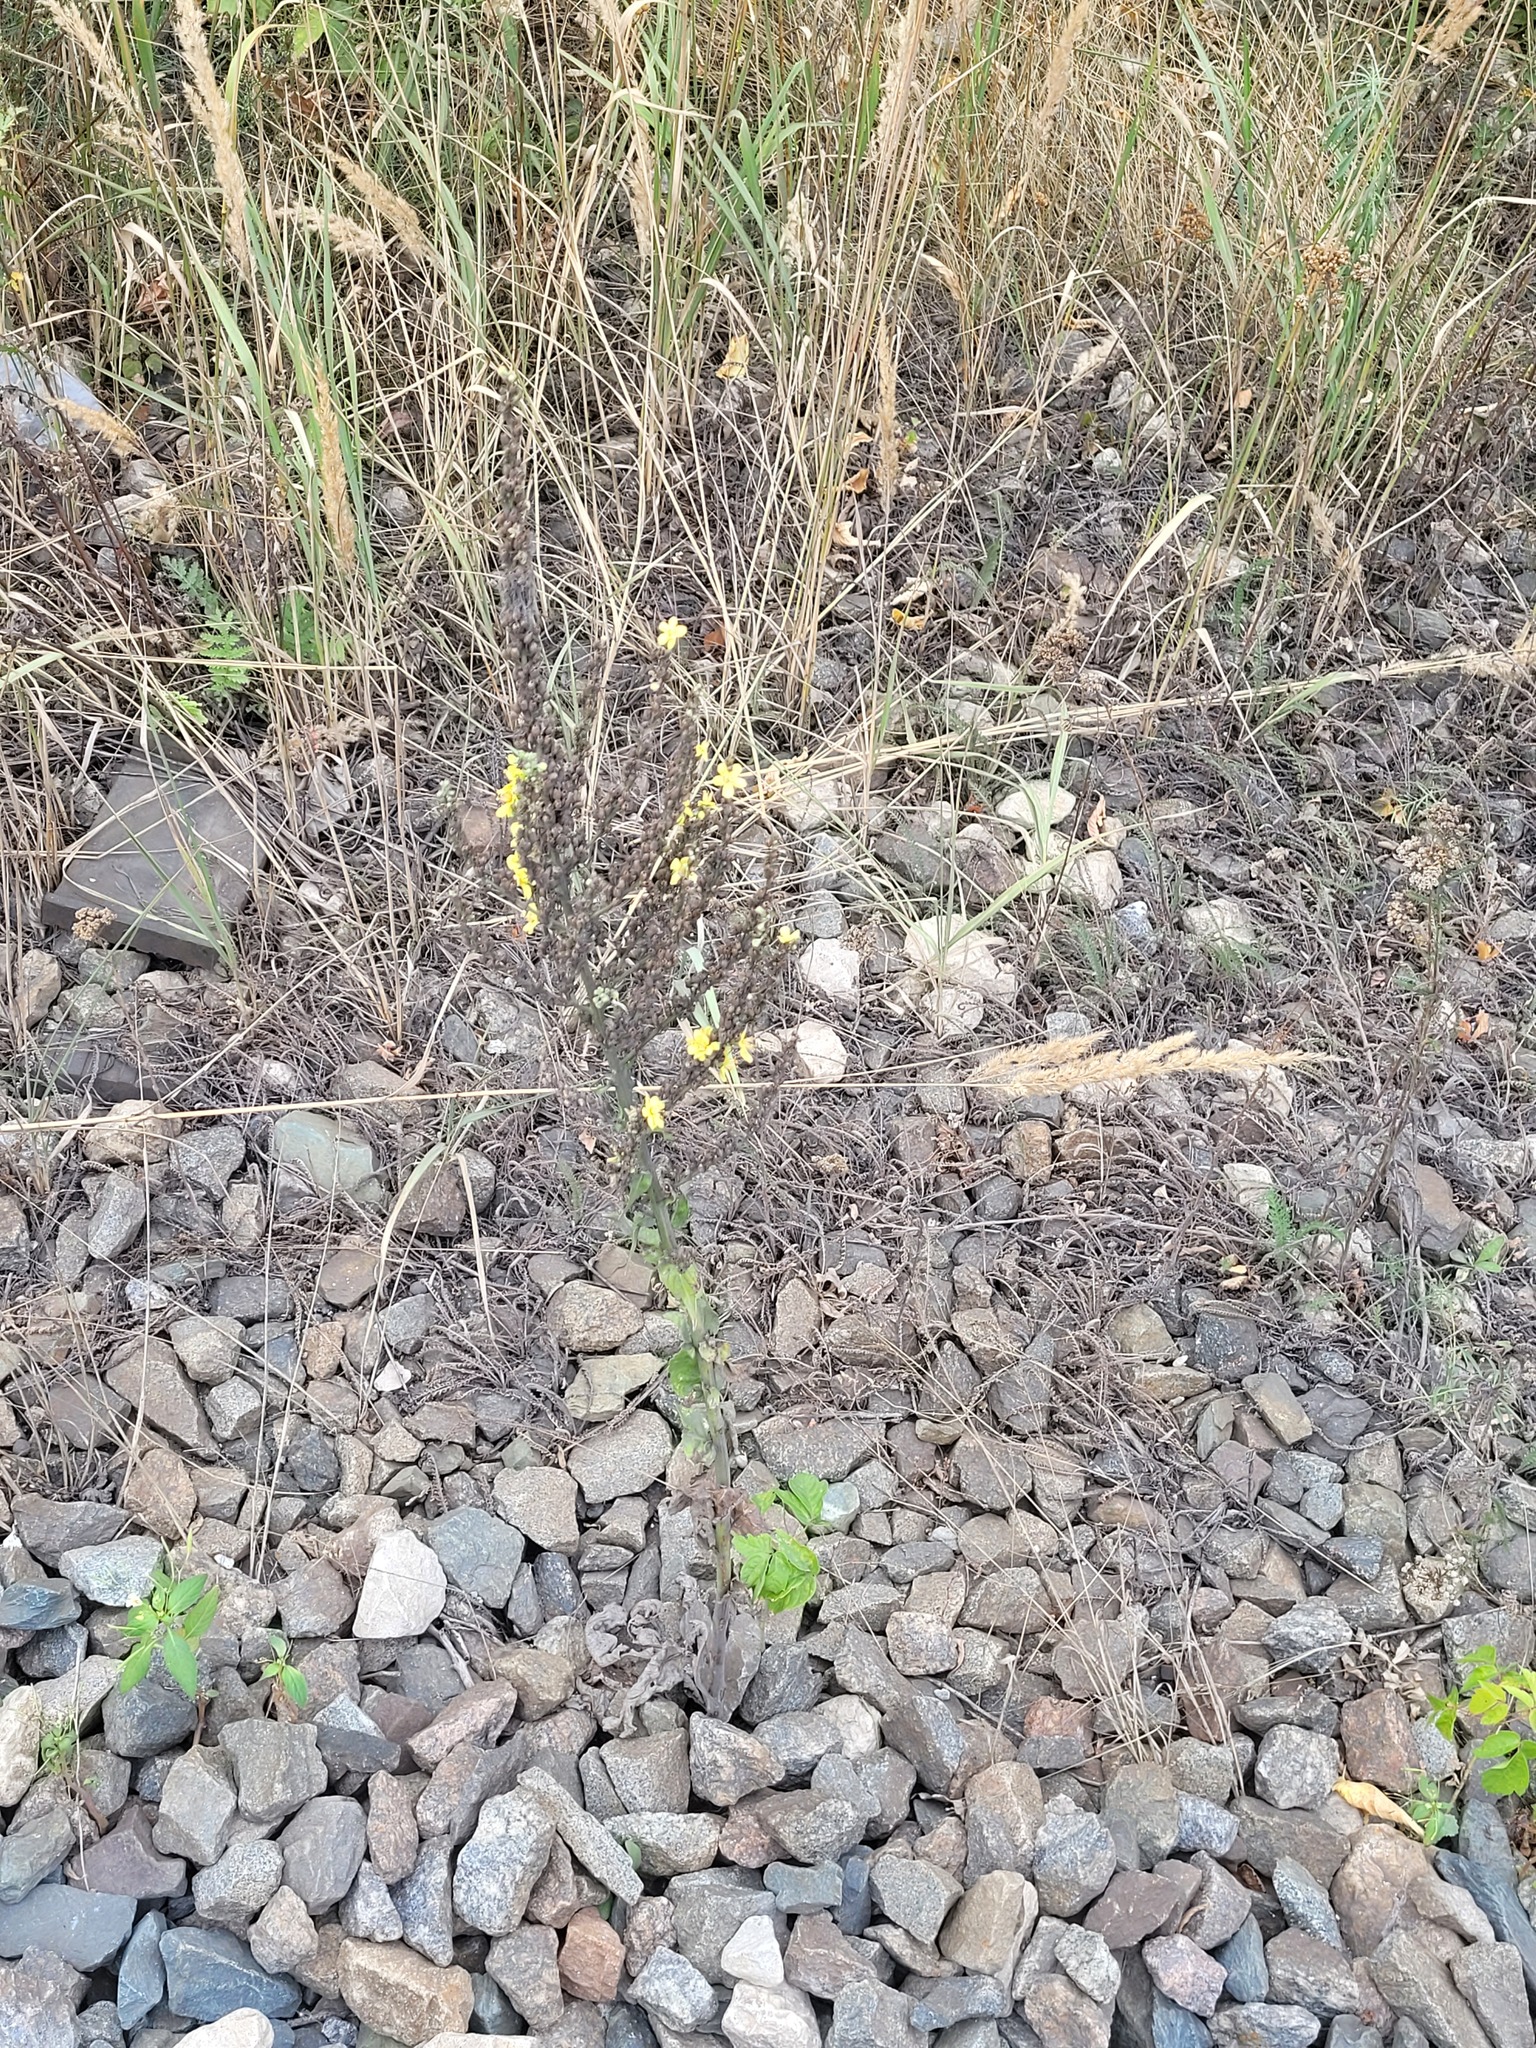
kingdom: Plantae
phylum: Tracheophyta
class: Magnoliopsida
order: Lamiales
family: Scrophulariaceae
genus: Verbascum
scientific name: Verbascum lychnitis
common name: White mullein
